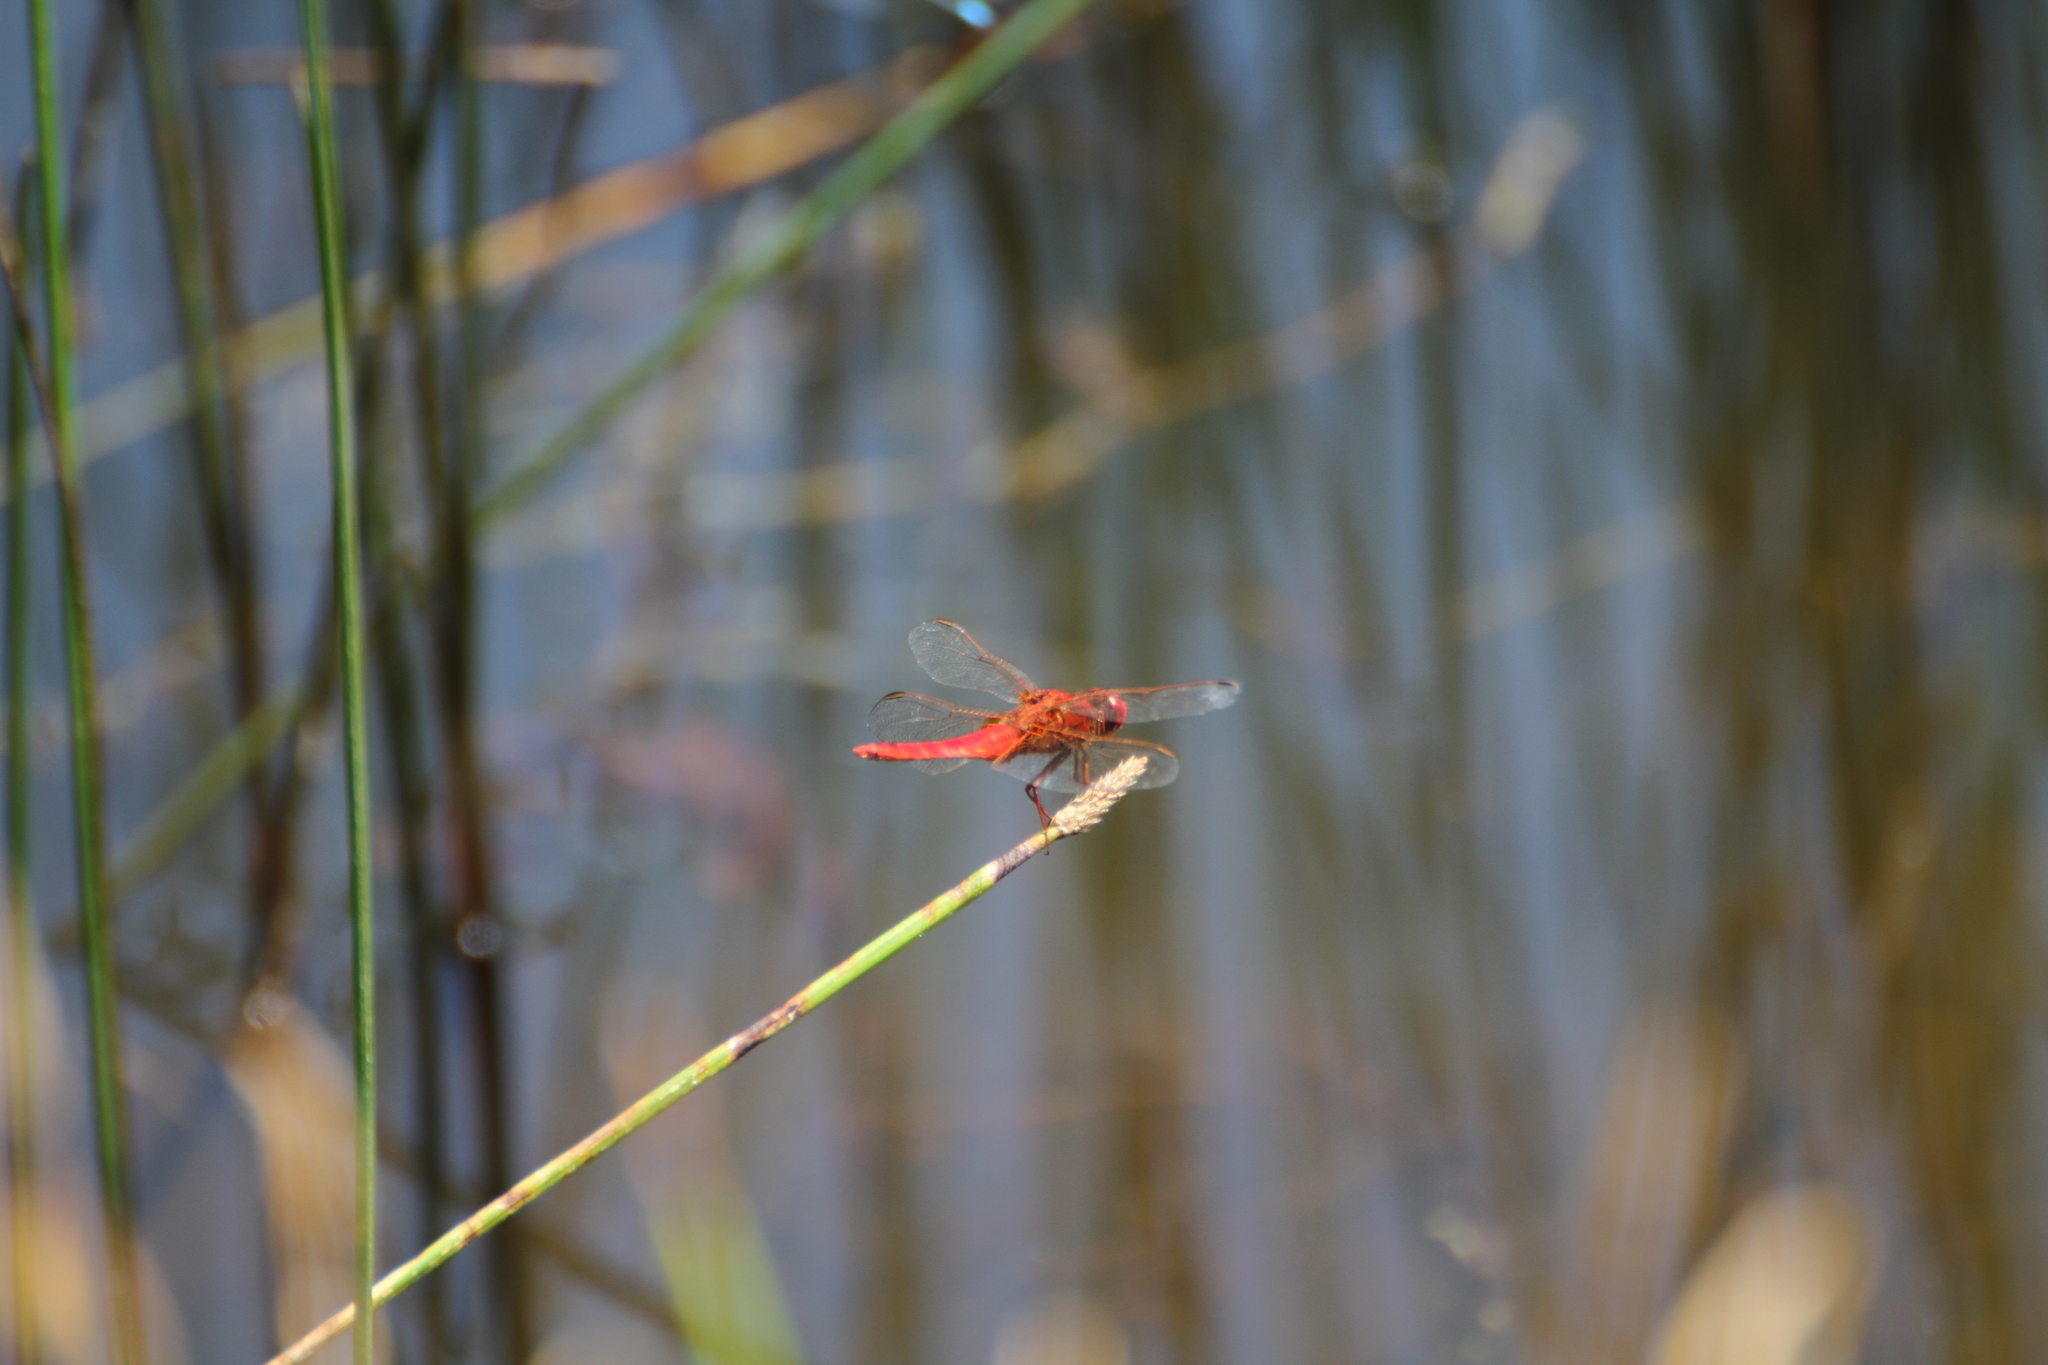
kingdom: Animalia
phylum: Arthropoda
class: Insecta
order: Odonata
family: Libellulidae
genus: Crocothemis
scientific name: Crocothemis erythraea
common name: Scarlet dragonfly
